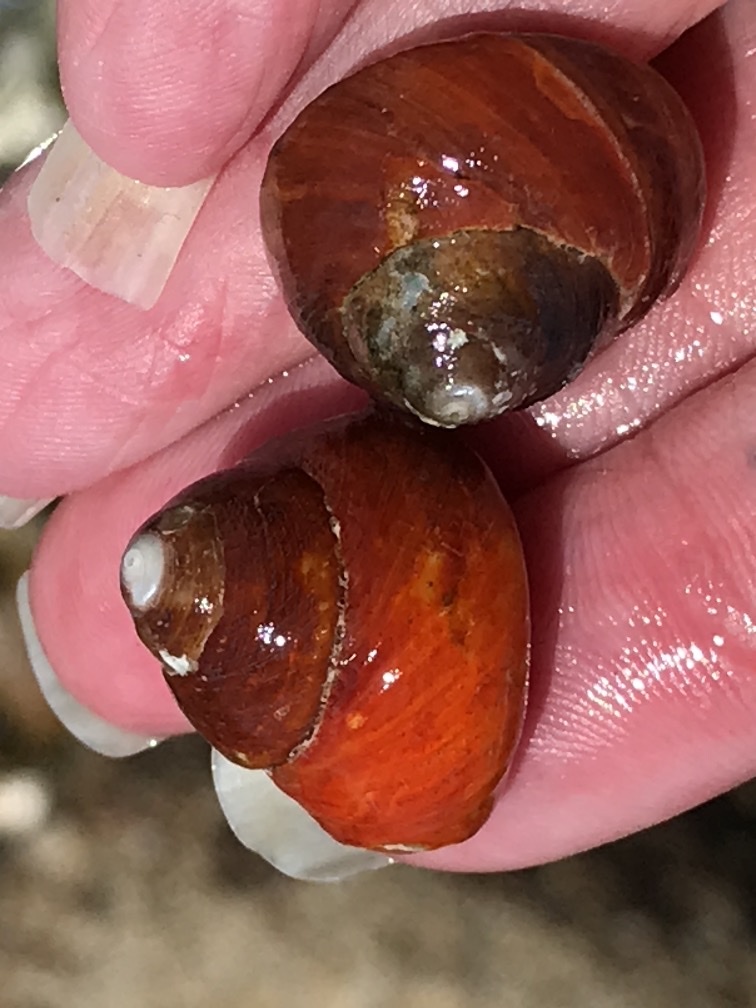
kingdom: Animalia
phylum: Mollusca
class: Gastropoda
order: Trochida
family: Tegulidae
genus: Tegula
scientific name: Tegula brunnea
